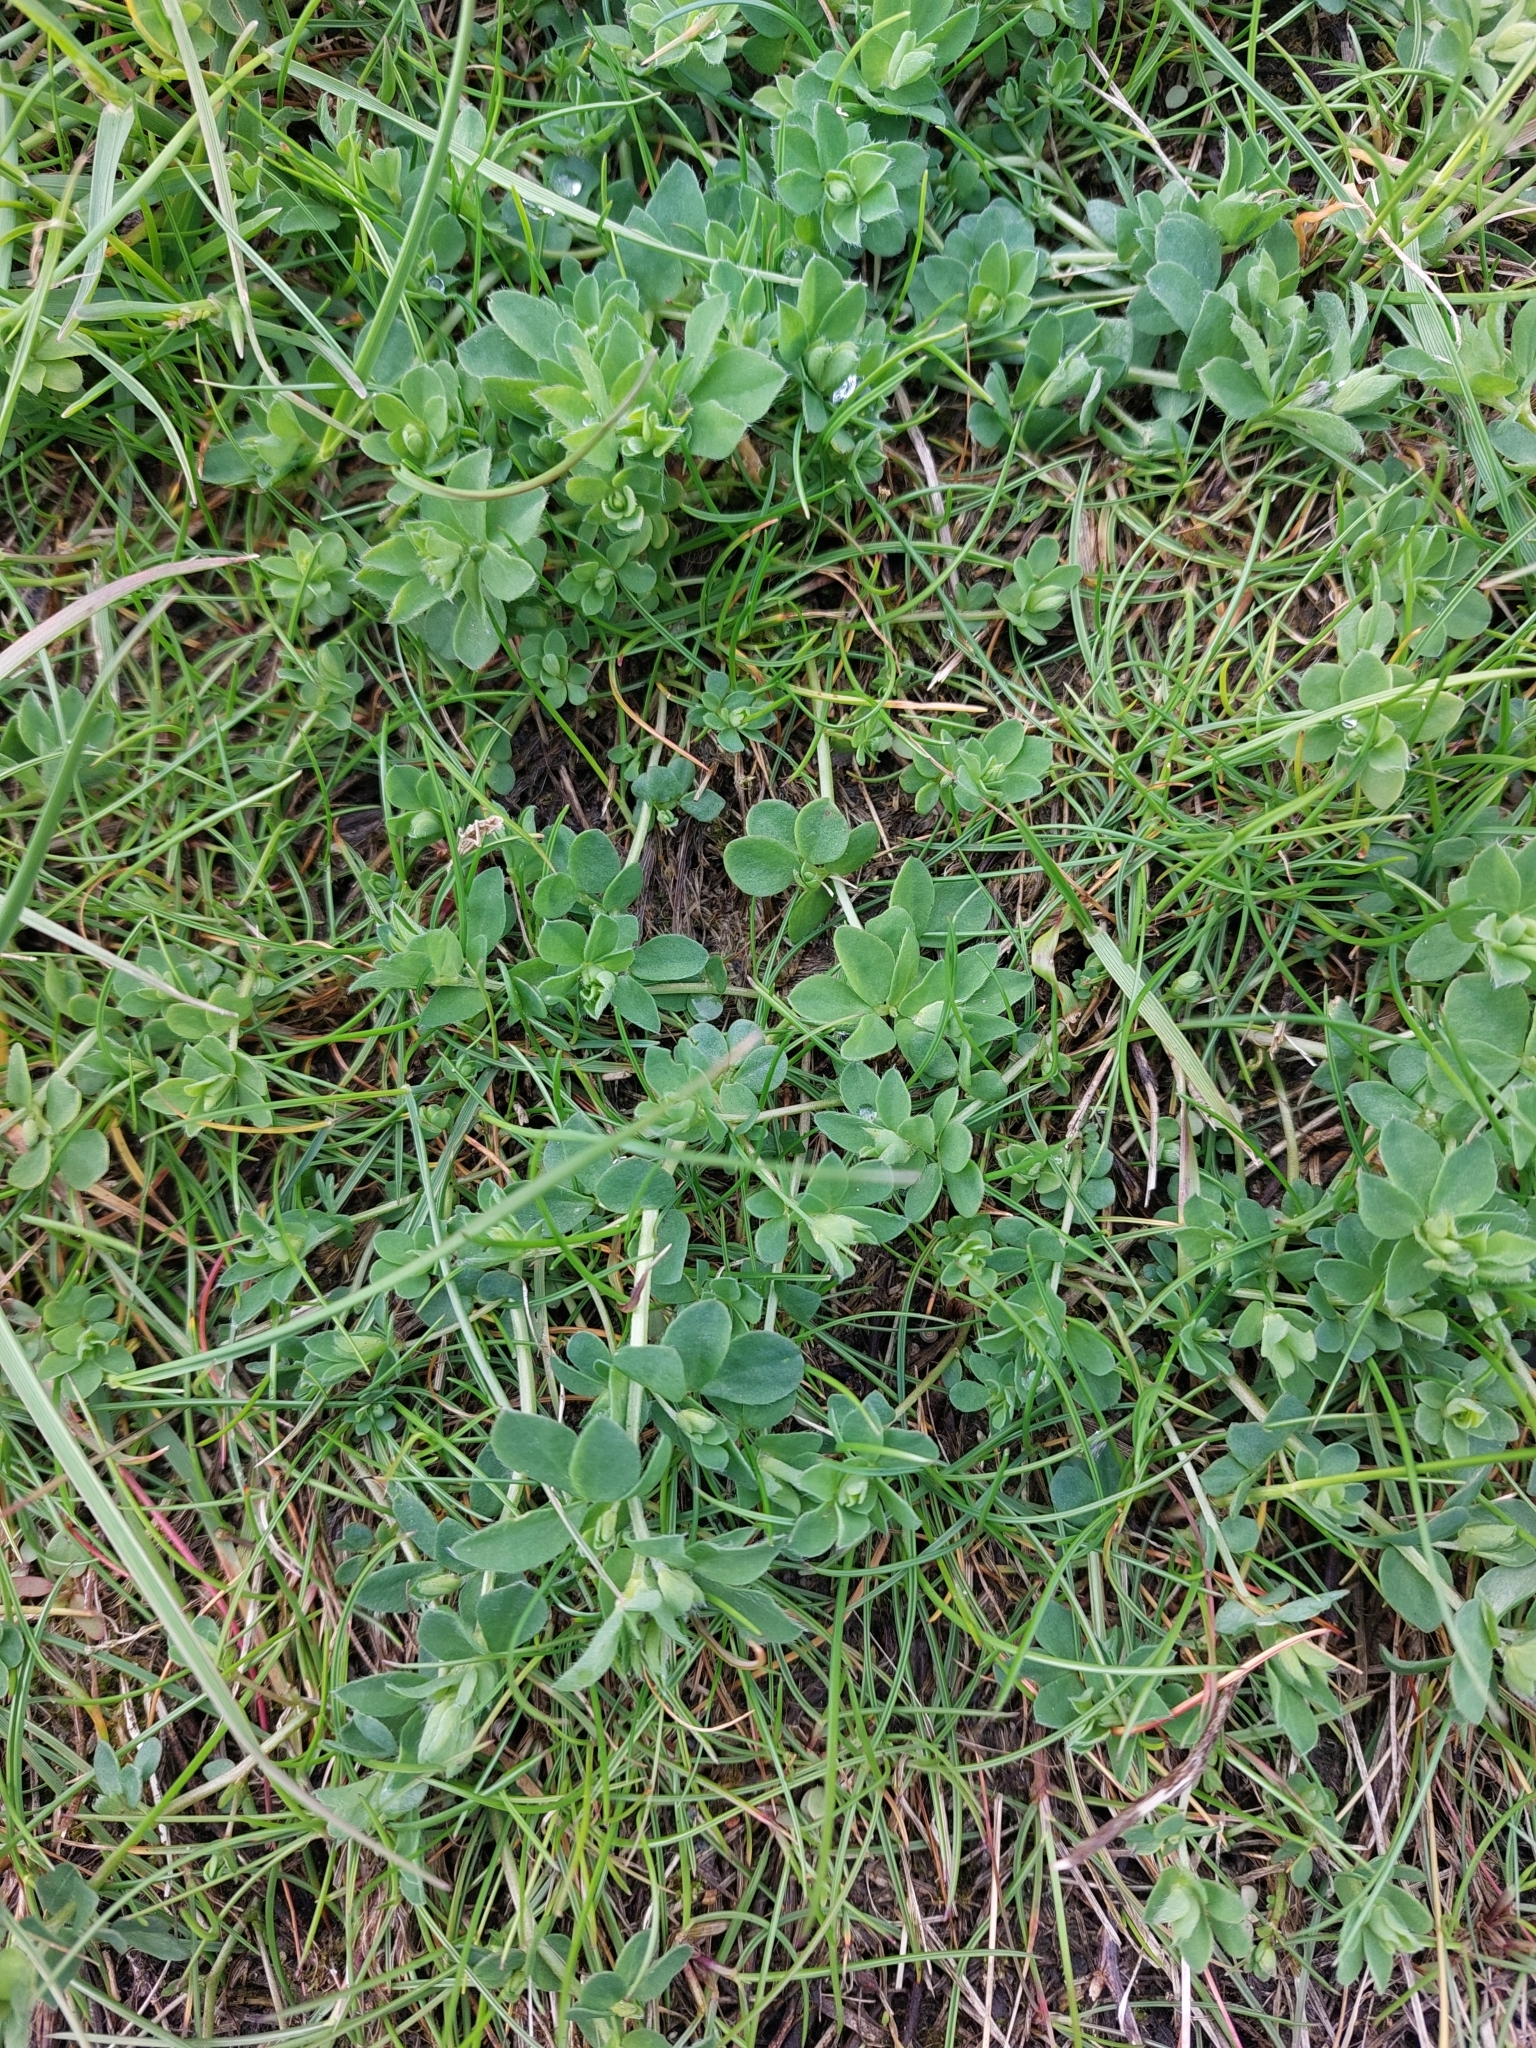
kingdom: Plantae
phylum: Tracheophyta
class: Magnoliopsida
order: Fabales
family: Fabaceae
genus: Lotus
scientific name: Lotus corniculatus
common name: Common bird's-foot-trefoil
